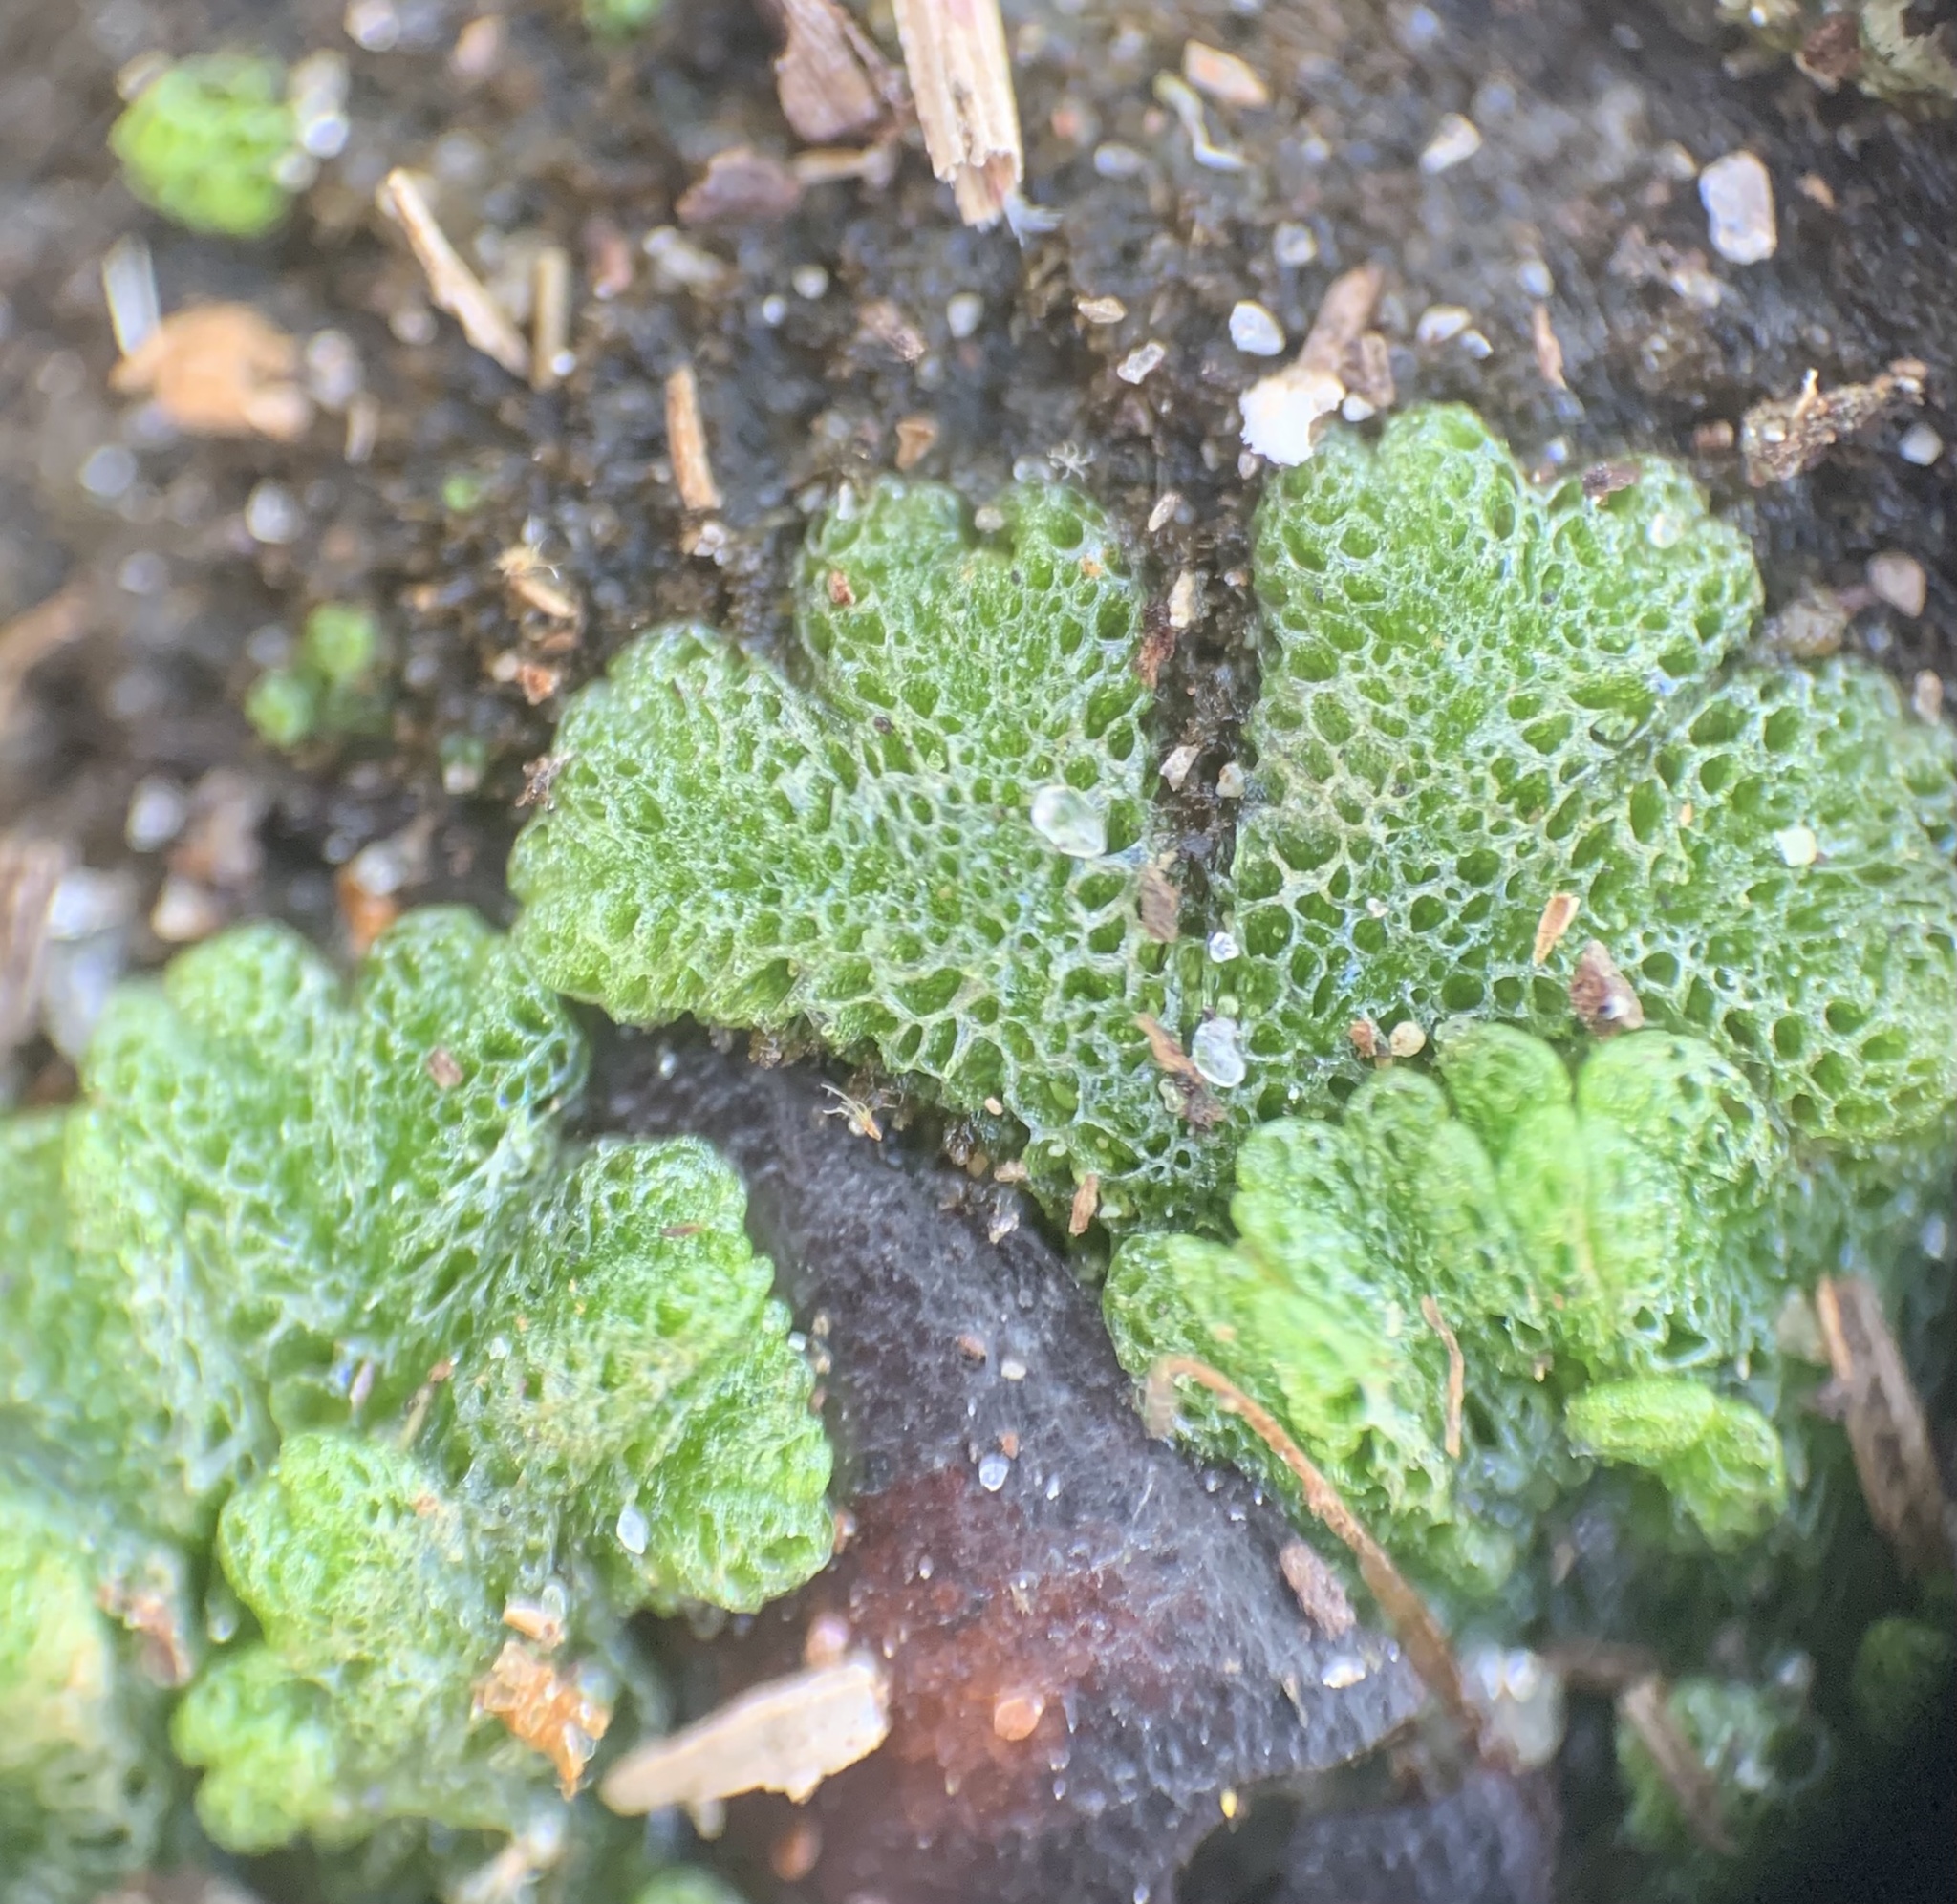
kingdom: Plantae
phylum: Marchantiophyta
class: Marchantiopsida
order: Marchantiales
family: Ricciaceae
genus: Riccia
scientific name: Riccia cavernosa
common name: Cavernous crystalwort
